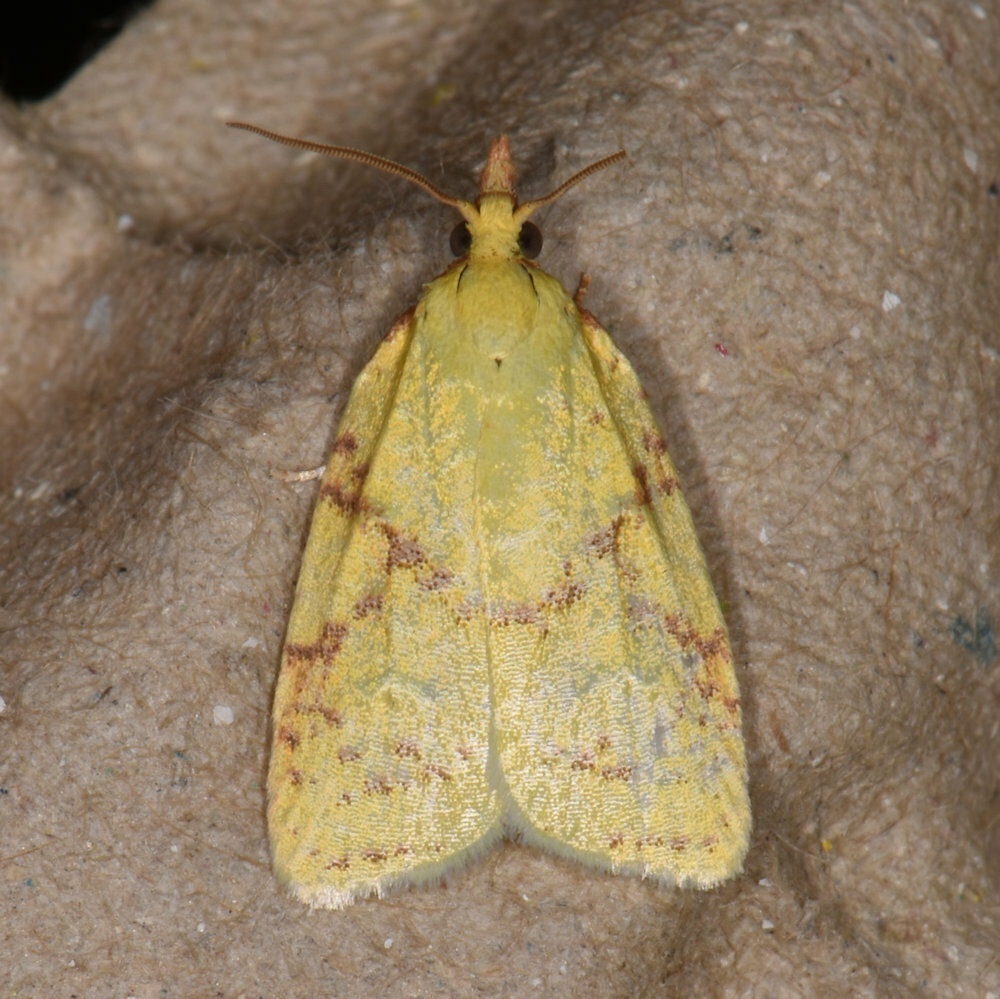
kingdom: Animalia
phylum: Arthropoda
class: Insecta
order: Lepidoptera
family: Tortricidae
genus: Cenopis
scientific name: Cenopis pettitana
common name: Maple-basswood leafroller moth
